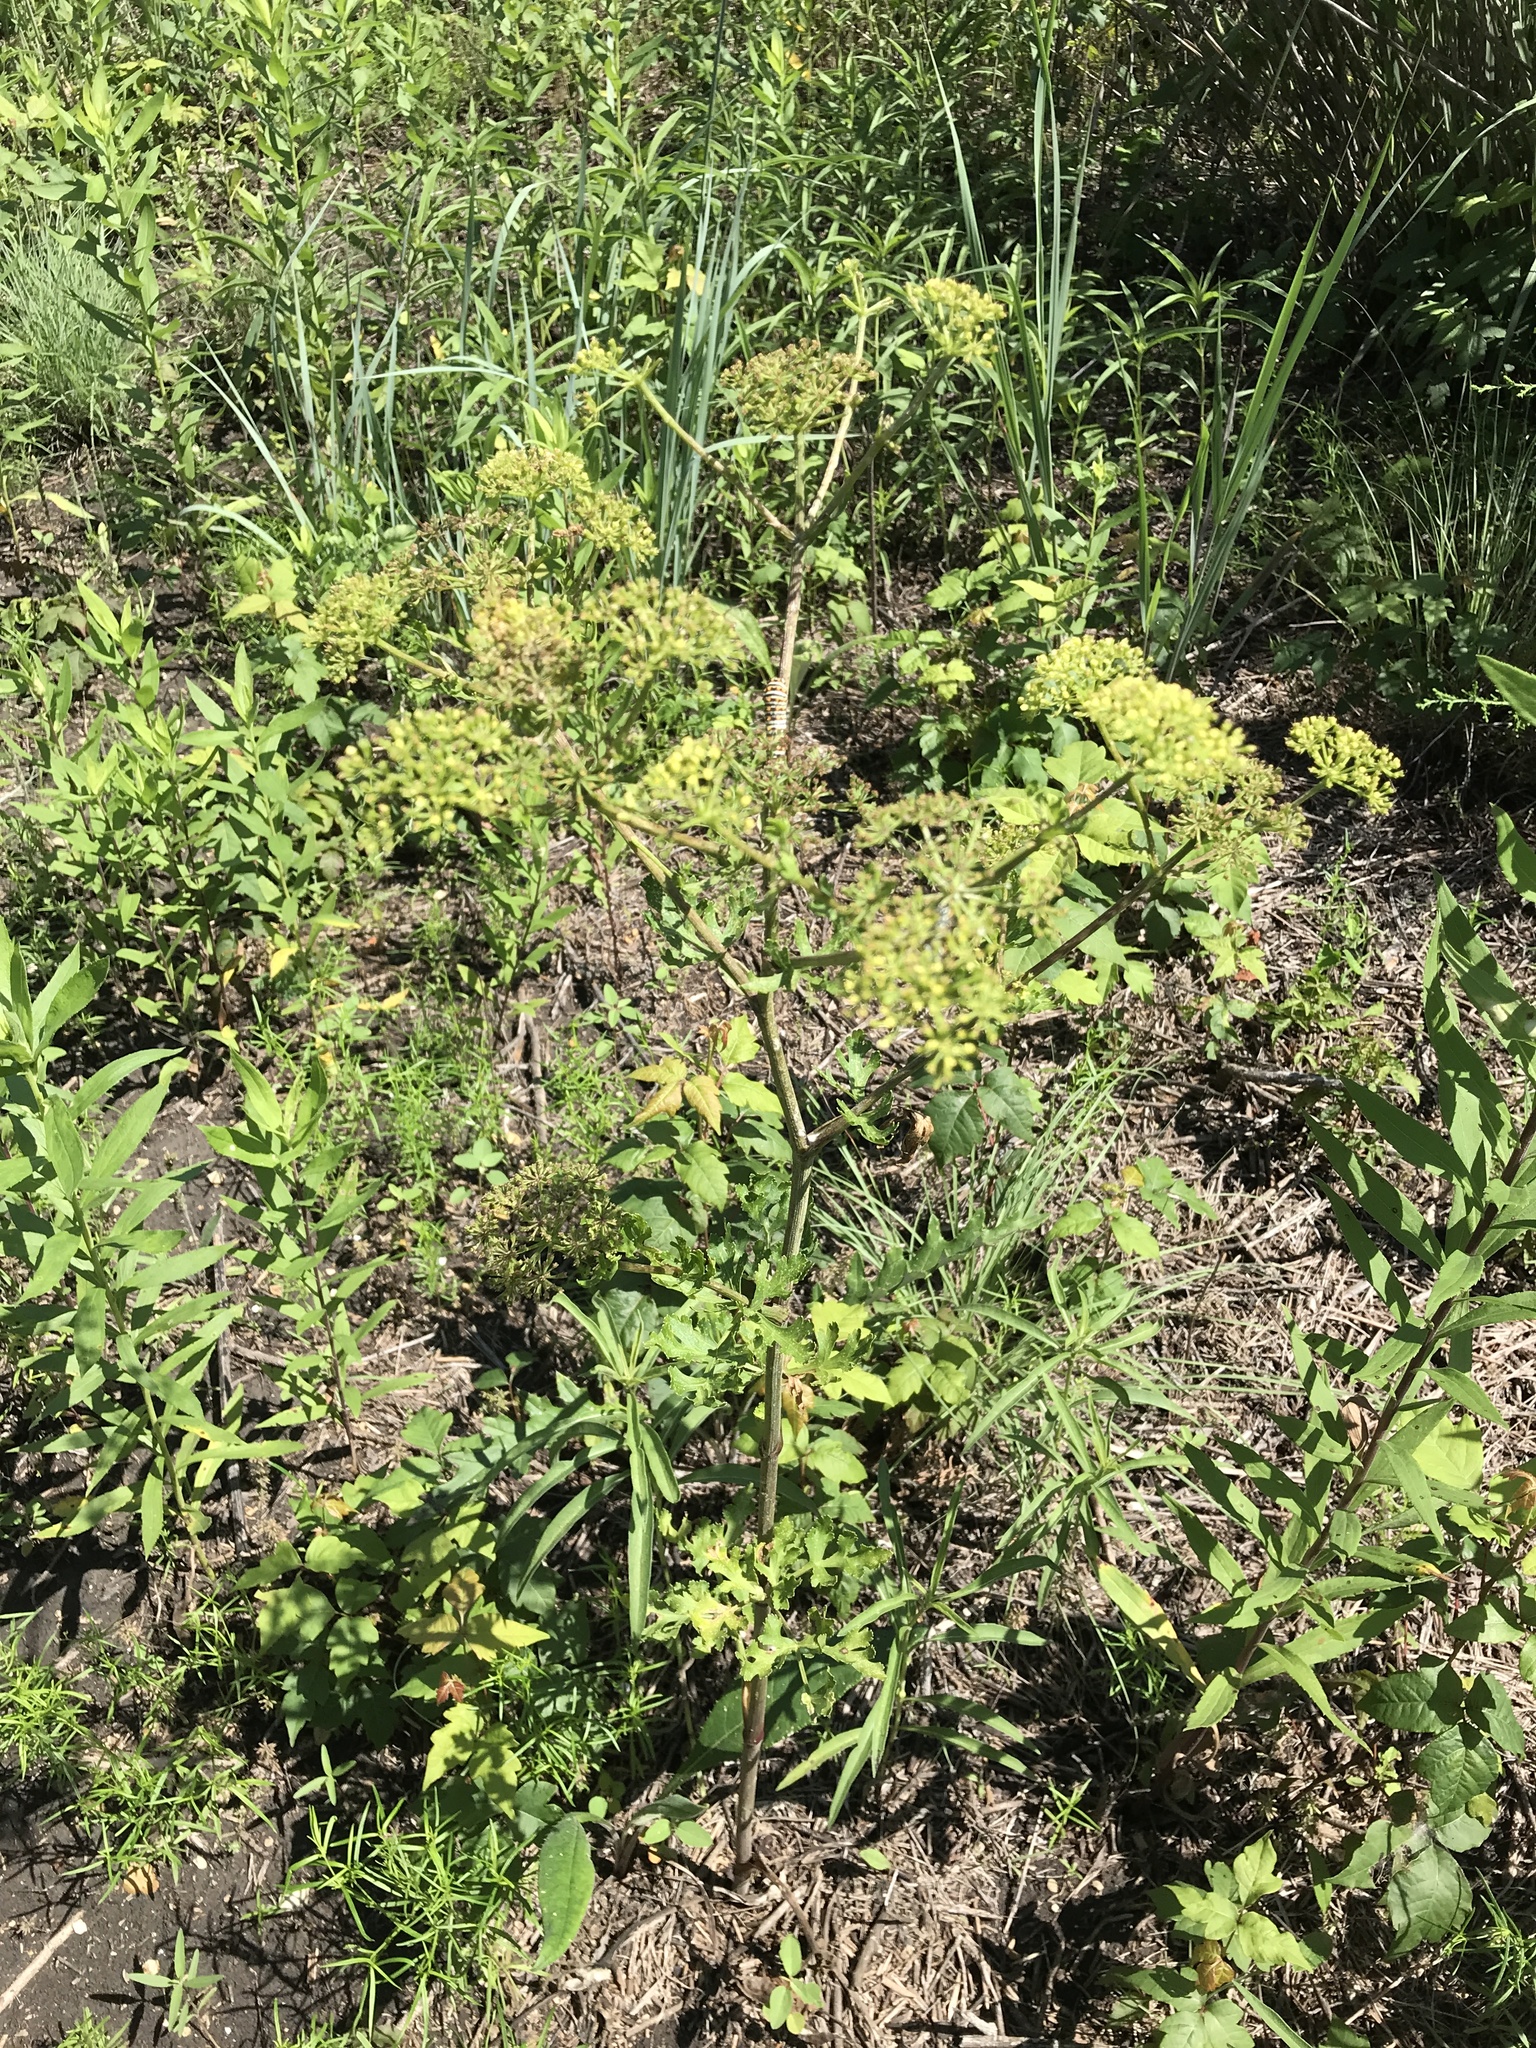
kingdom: Plantae
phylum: Tracheophyta
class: Magnoliopsida
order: Apiales
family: Apiaceae
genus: Polytaenia
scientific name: Polytaenia texana
